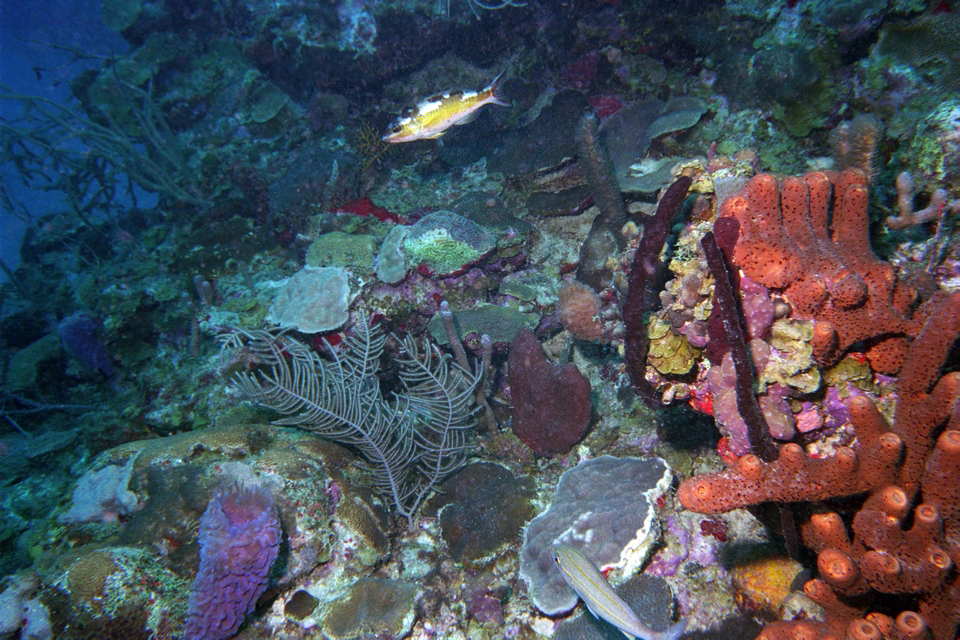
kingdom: Animalia
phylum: Chordata
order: Perciformes
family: Serranidae
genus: Serranus
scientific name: Serranus tabacarius
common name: Tobaccofish
